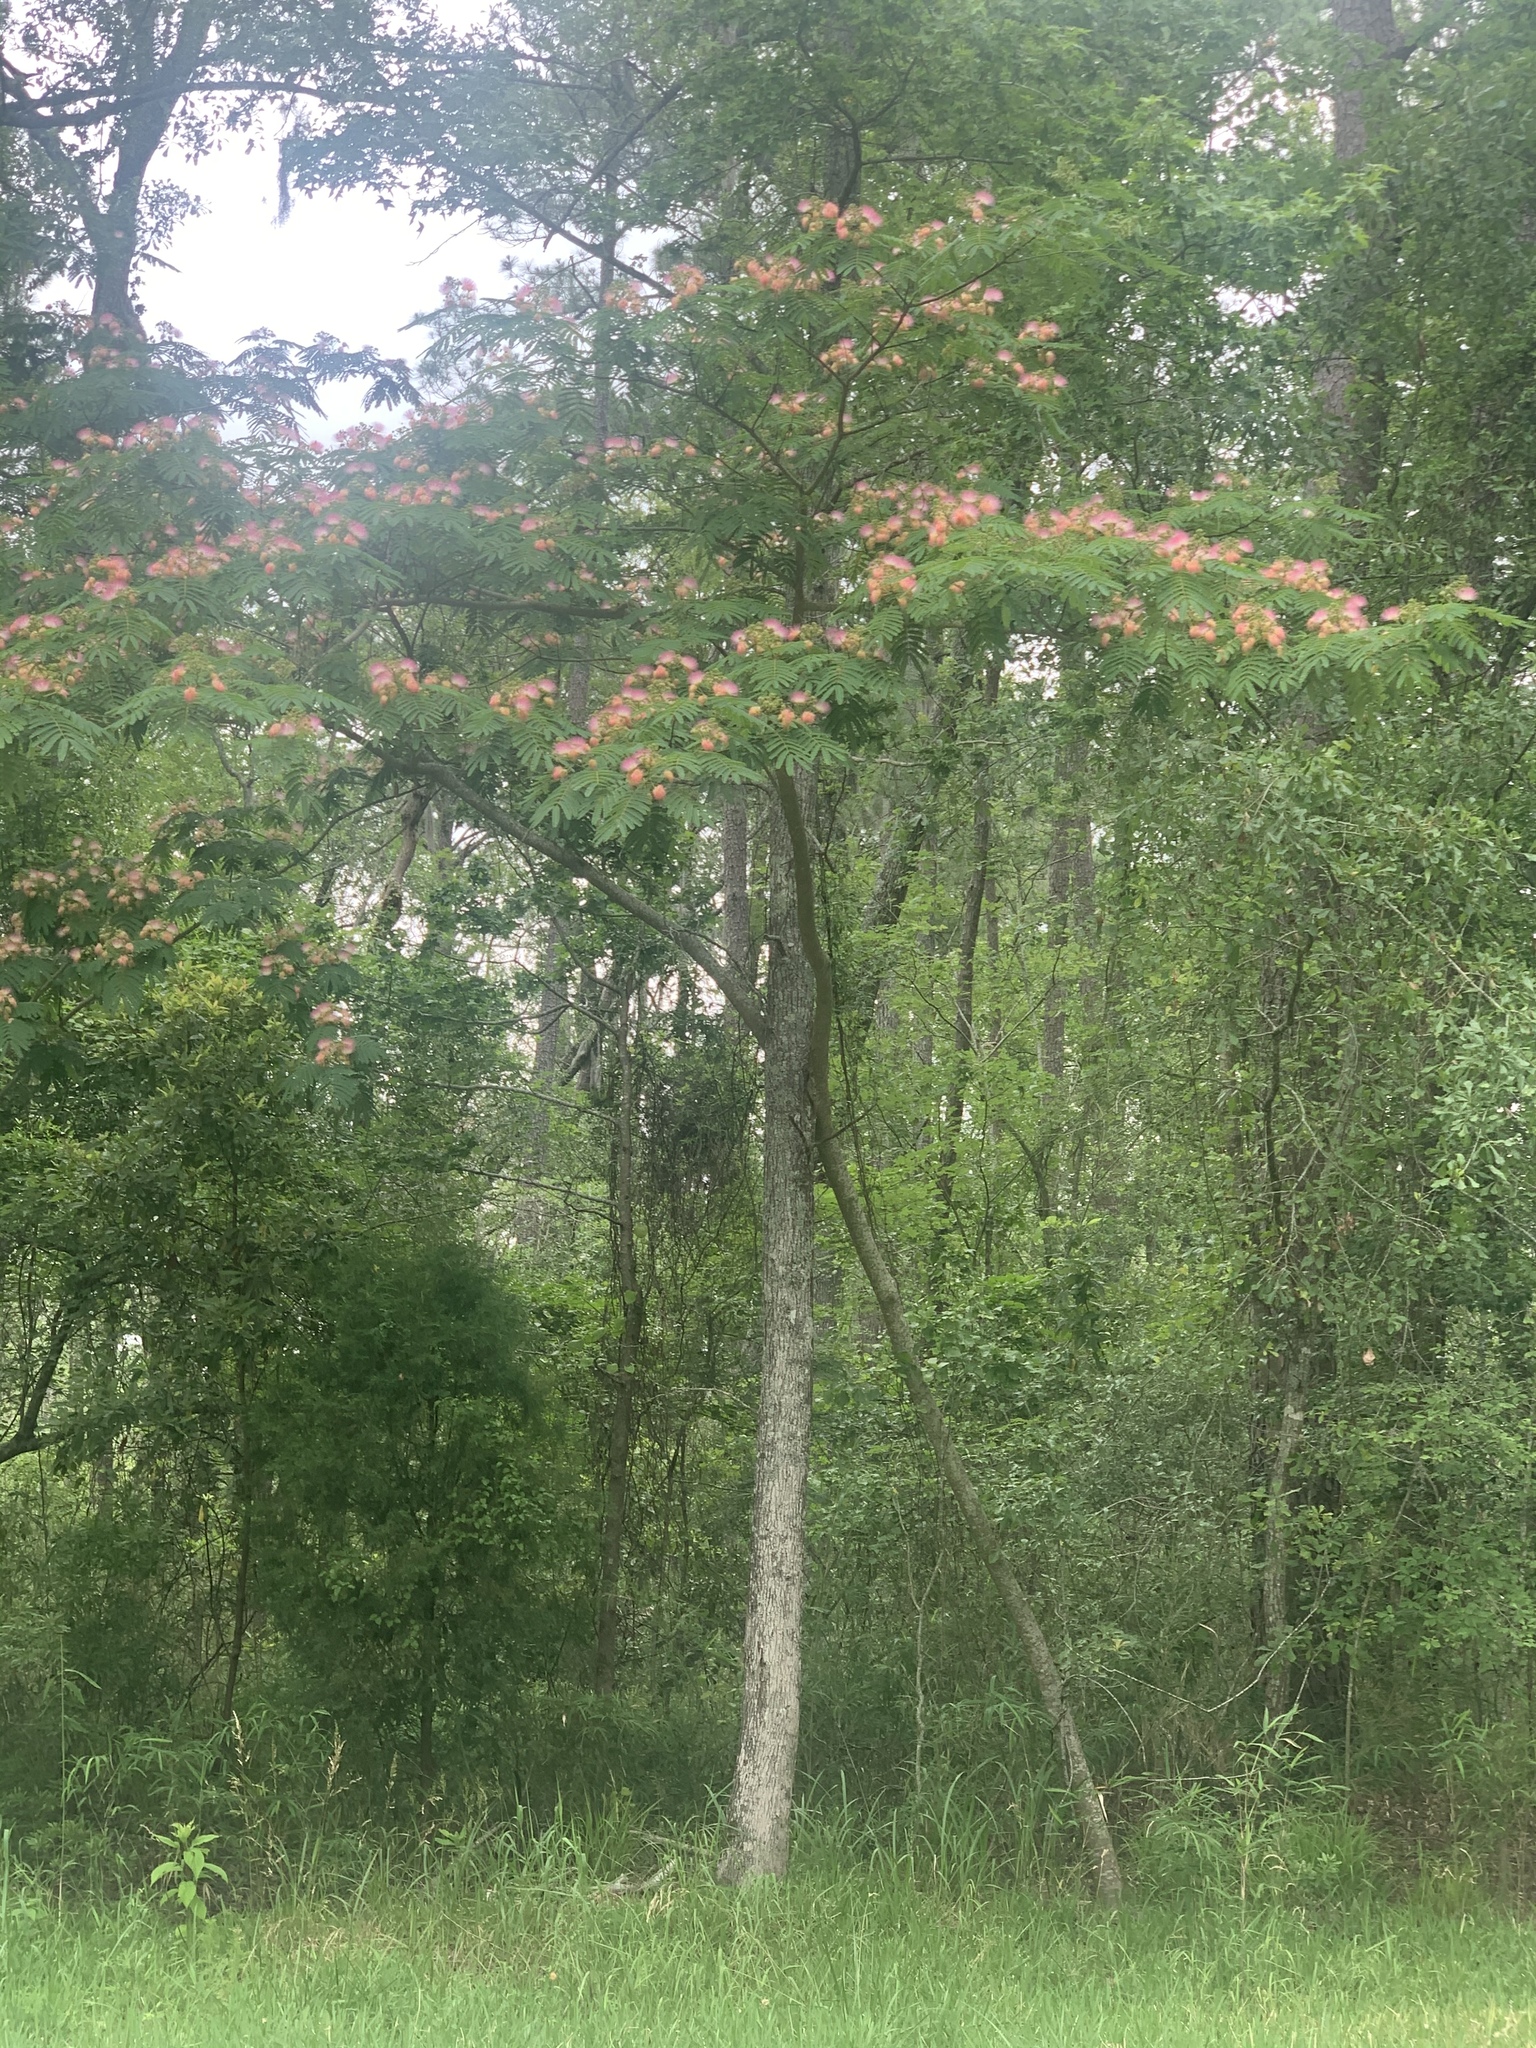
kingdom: Plantae
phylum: Tracheophyta
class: Magnoliopsida
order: Fabales
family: Fabaceae
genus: Albizia
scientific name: Albizia julibrissin
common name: Silktree
